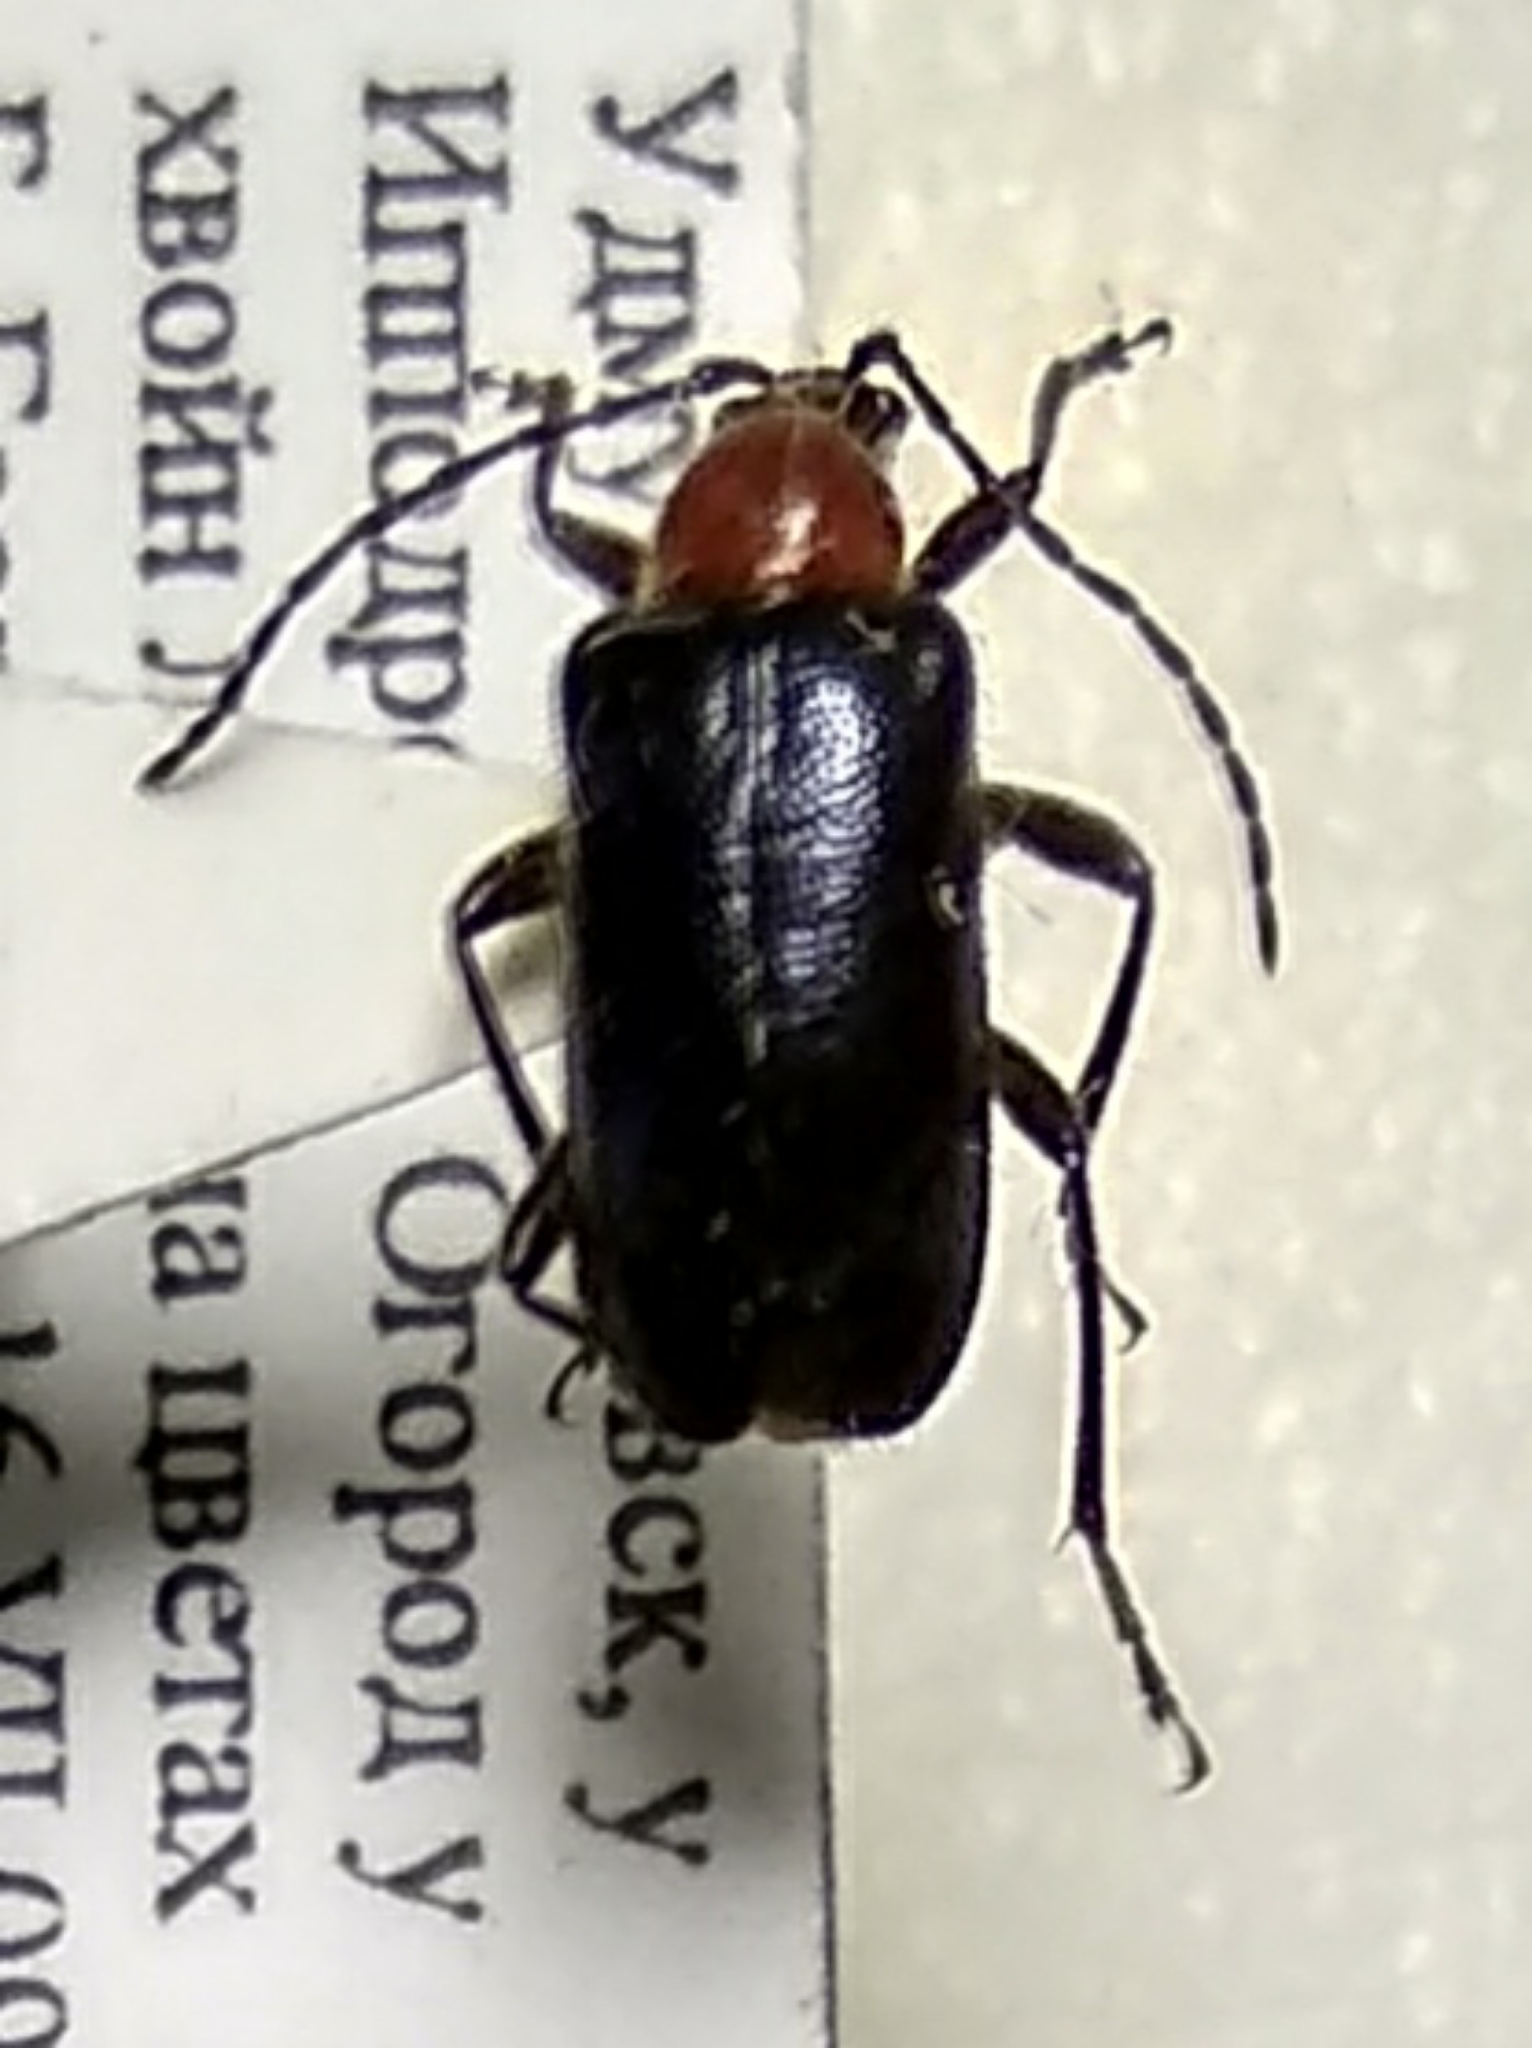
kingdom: Animalia
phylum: Arthropoda
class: Insecta
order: Coleoptera
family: Cerambycidae
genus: Dinoptera
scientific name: Dinoptera collaris
